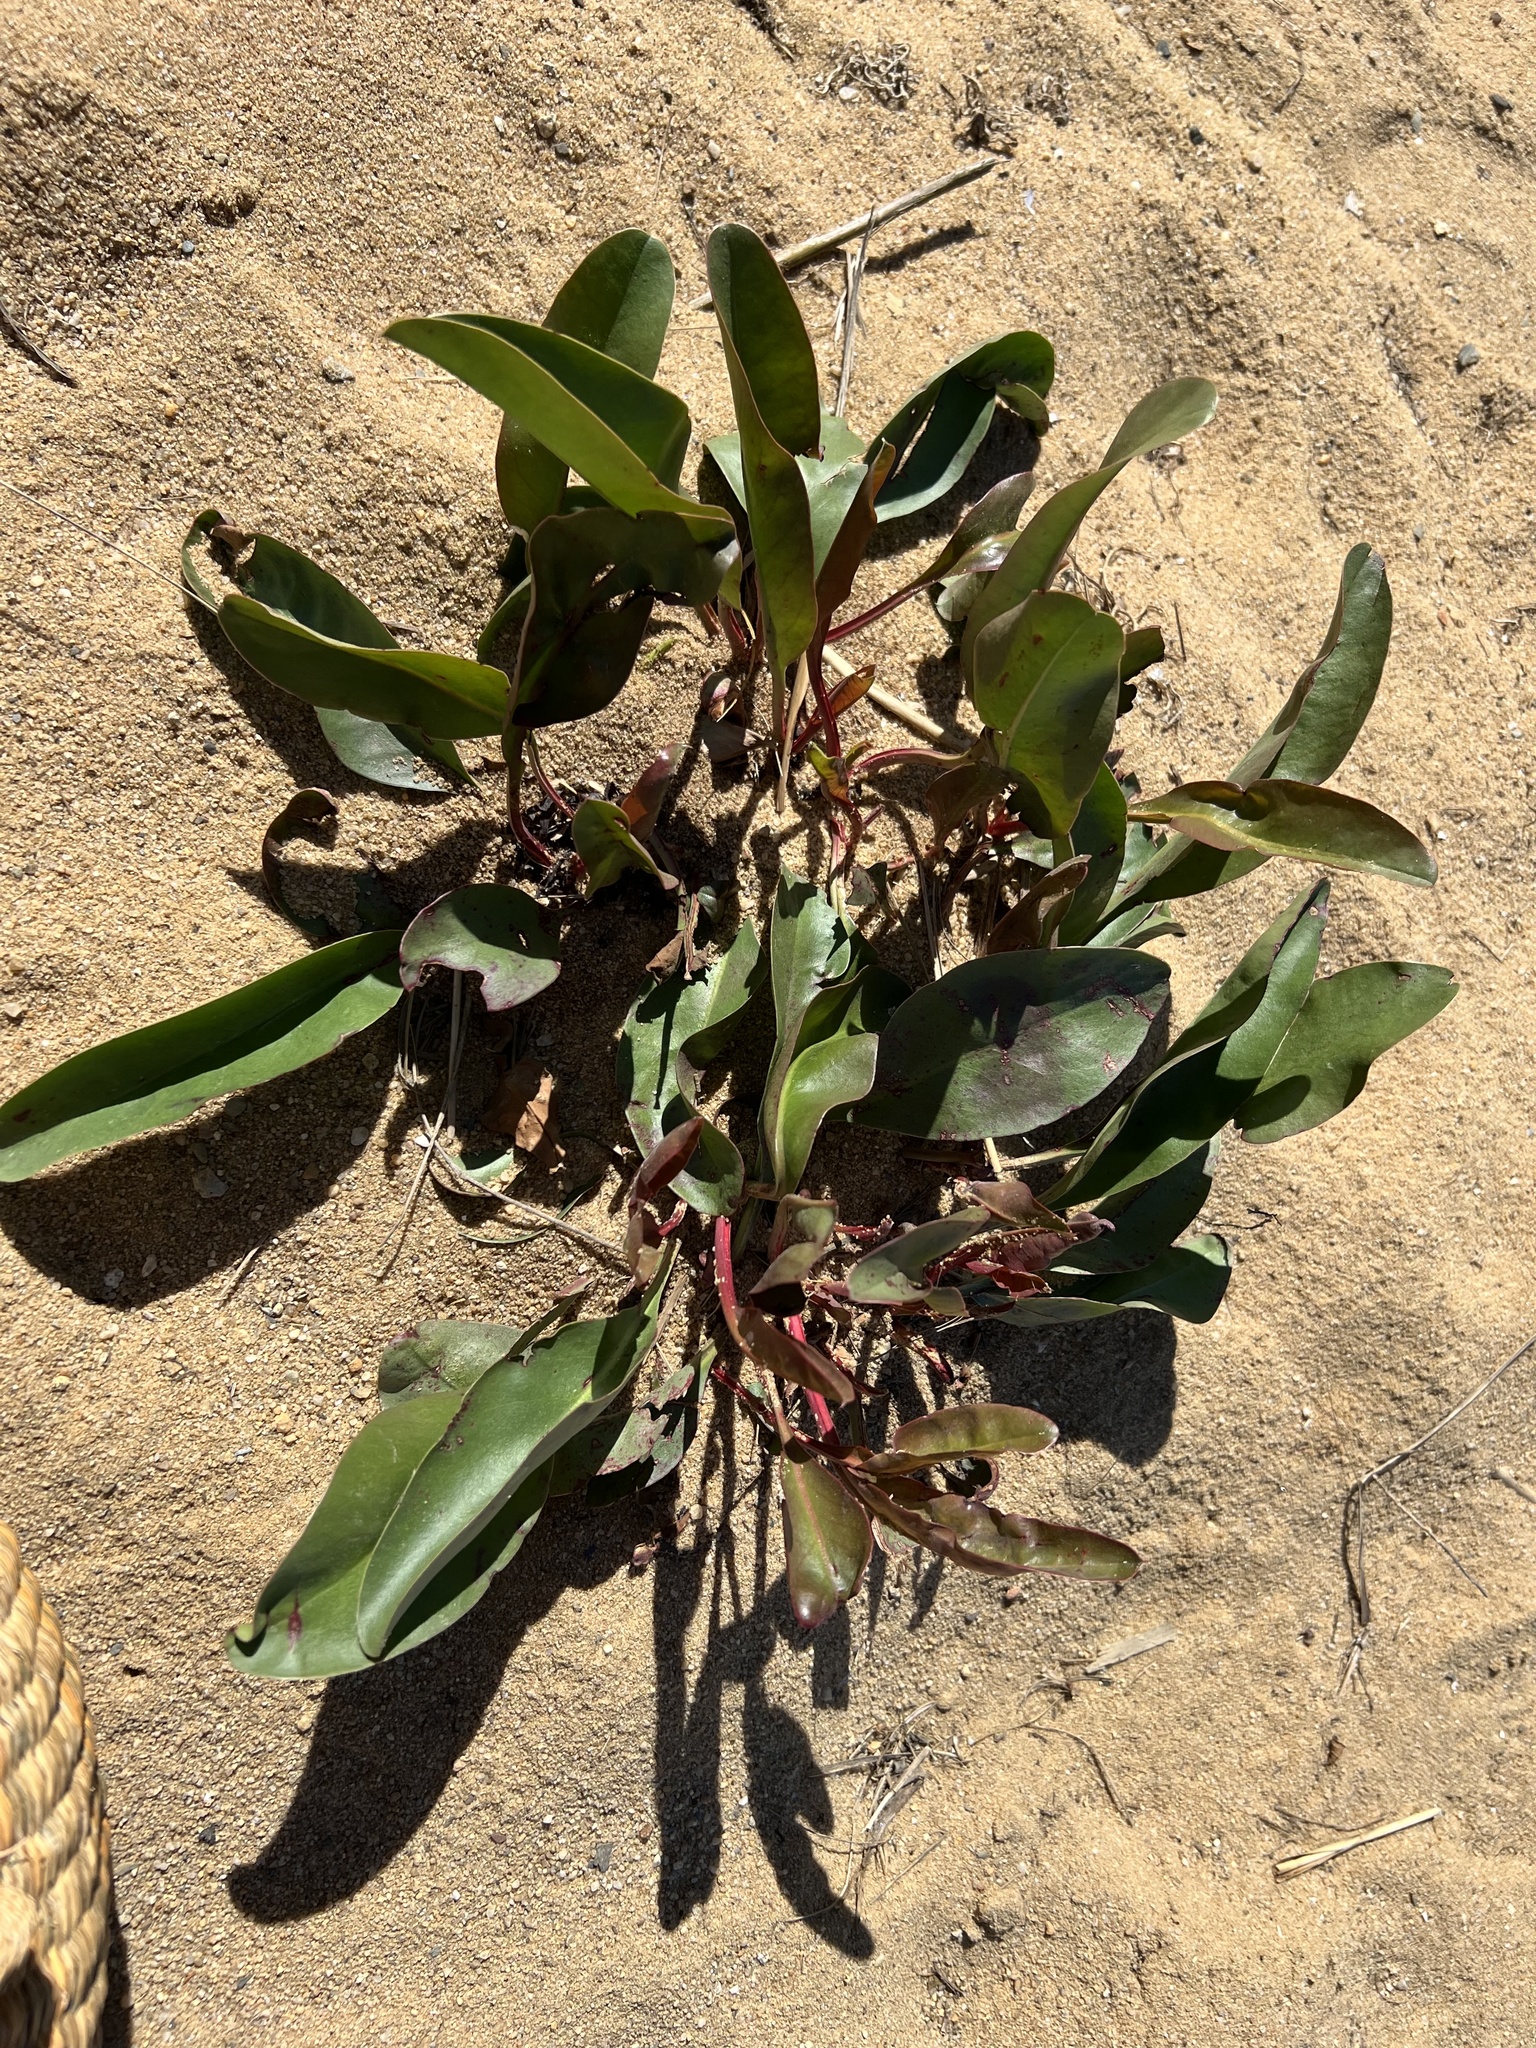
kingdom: Plantae
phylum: Tracheophyta
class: Magnoliopsida
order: Caryophyllales
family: Plumbaginaceae
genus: Limonium
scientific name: Limonium carolinianum
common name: Carolina sea lavender
